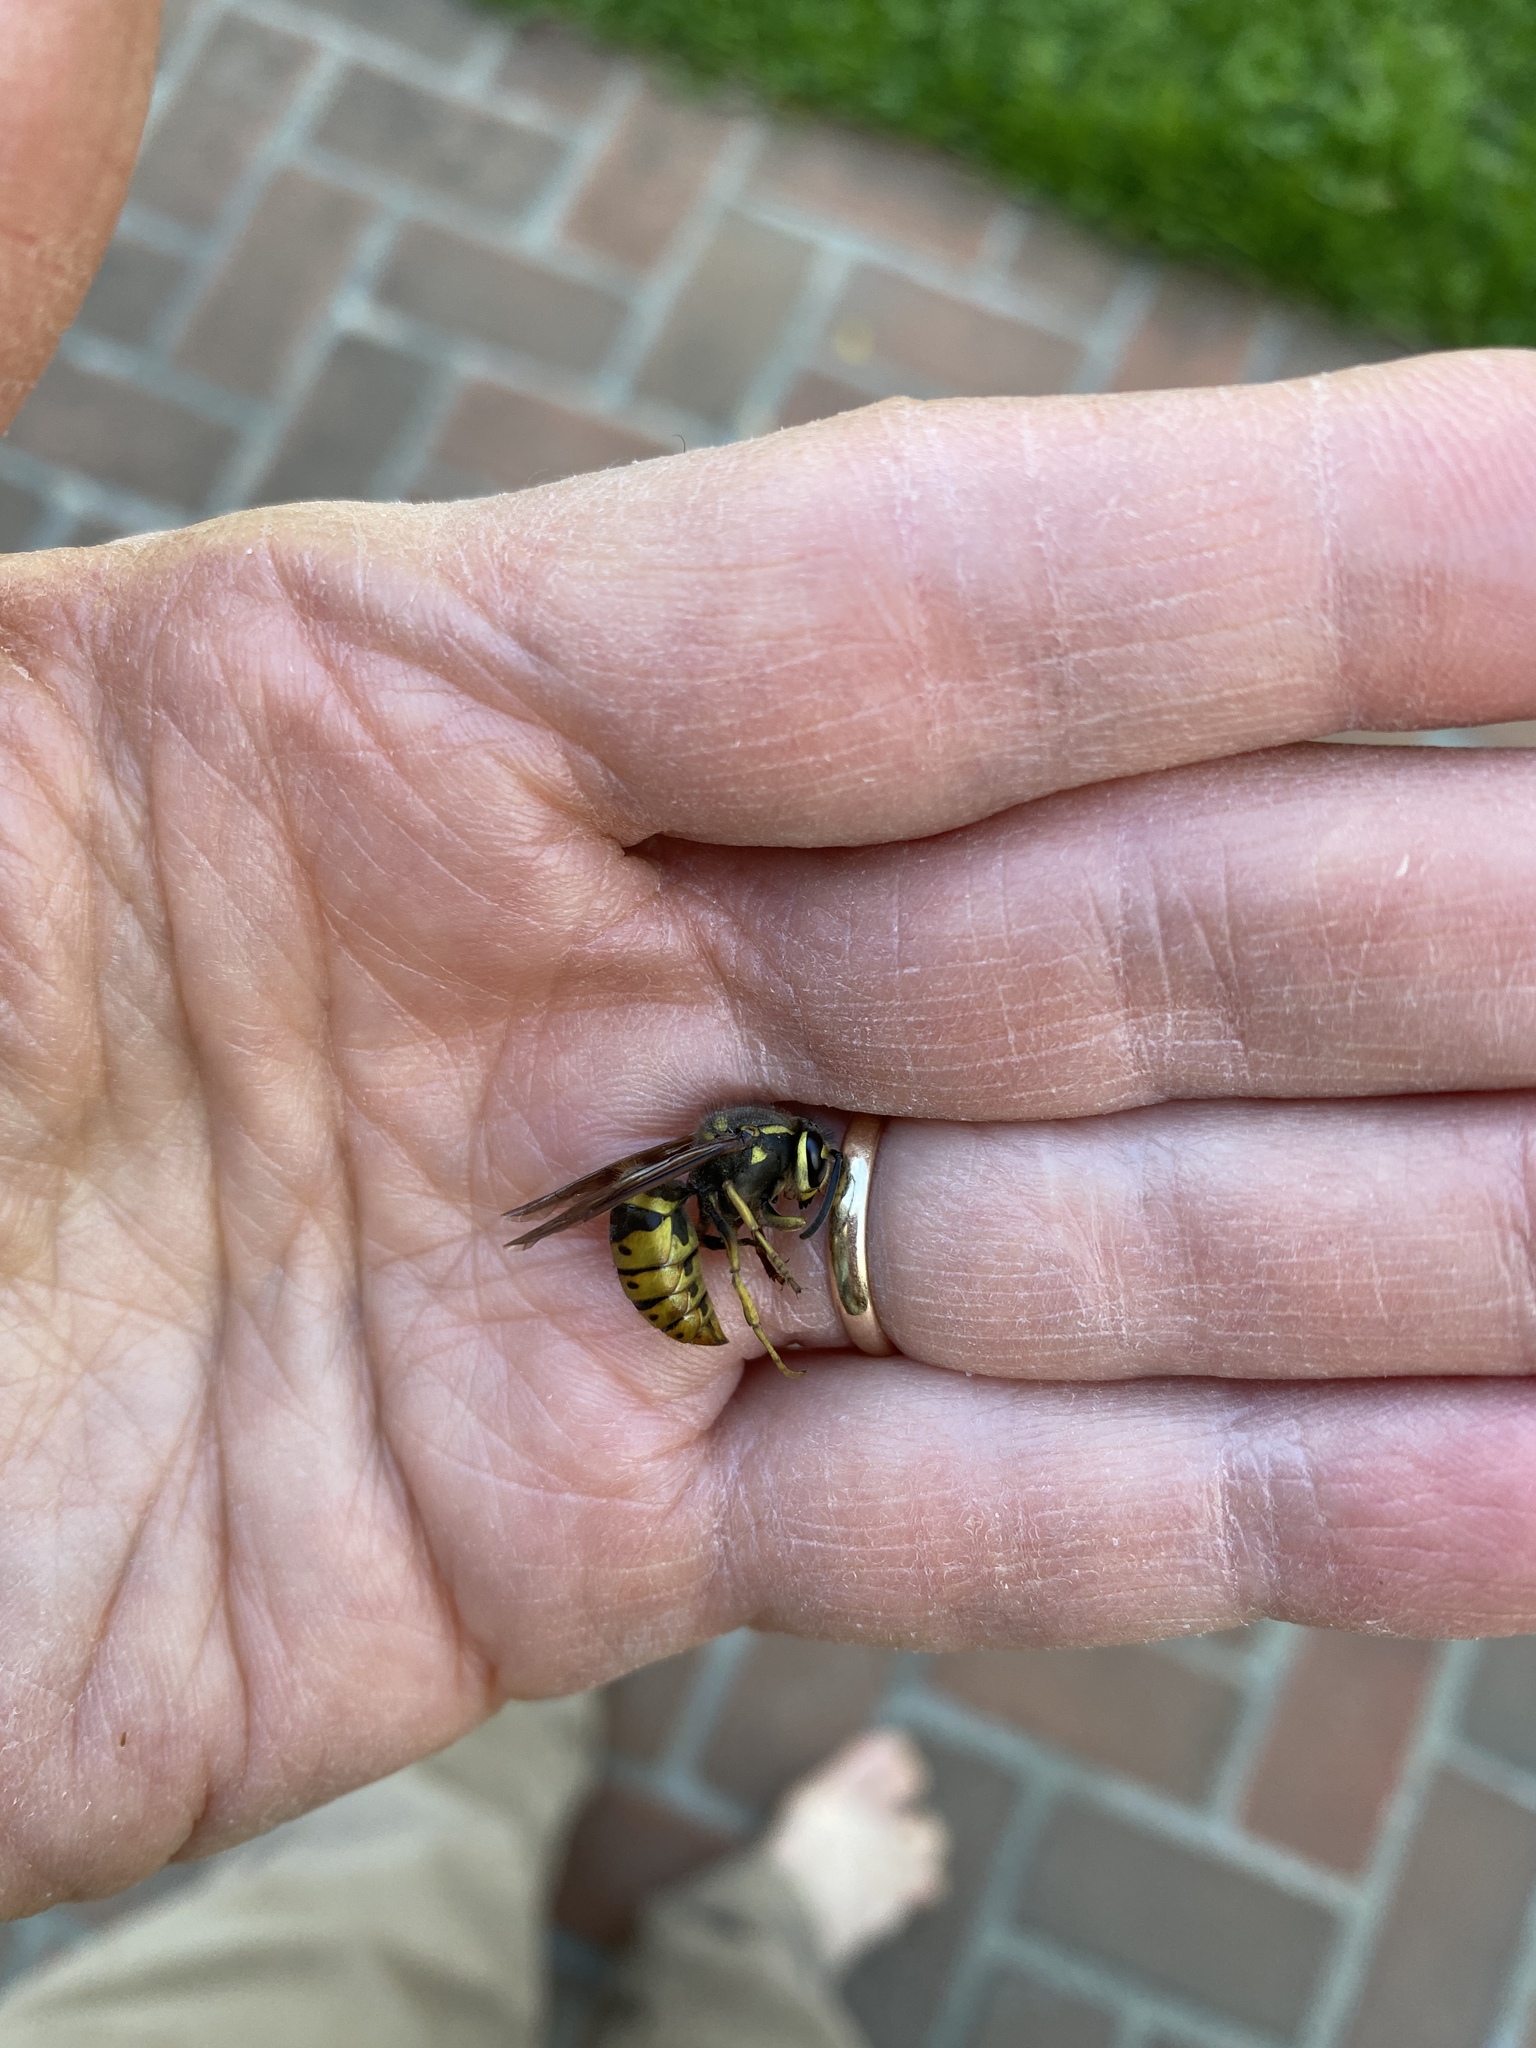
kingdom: Animalia
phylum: Arthropoda
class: Insecta
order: Hymenoptera
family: Vespidae
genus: Vespula
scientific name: Vespula maculifrons
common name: Eastern yellowjacket
